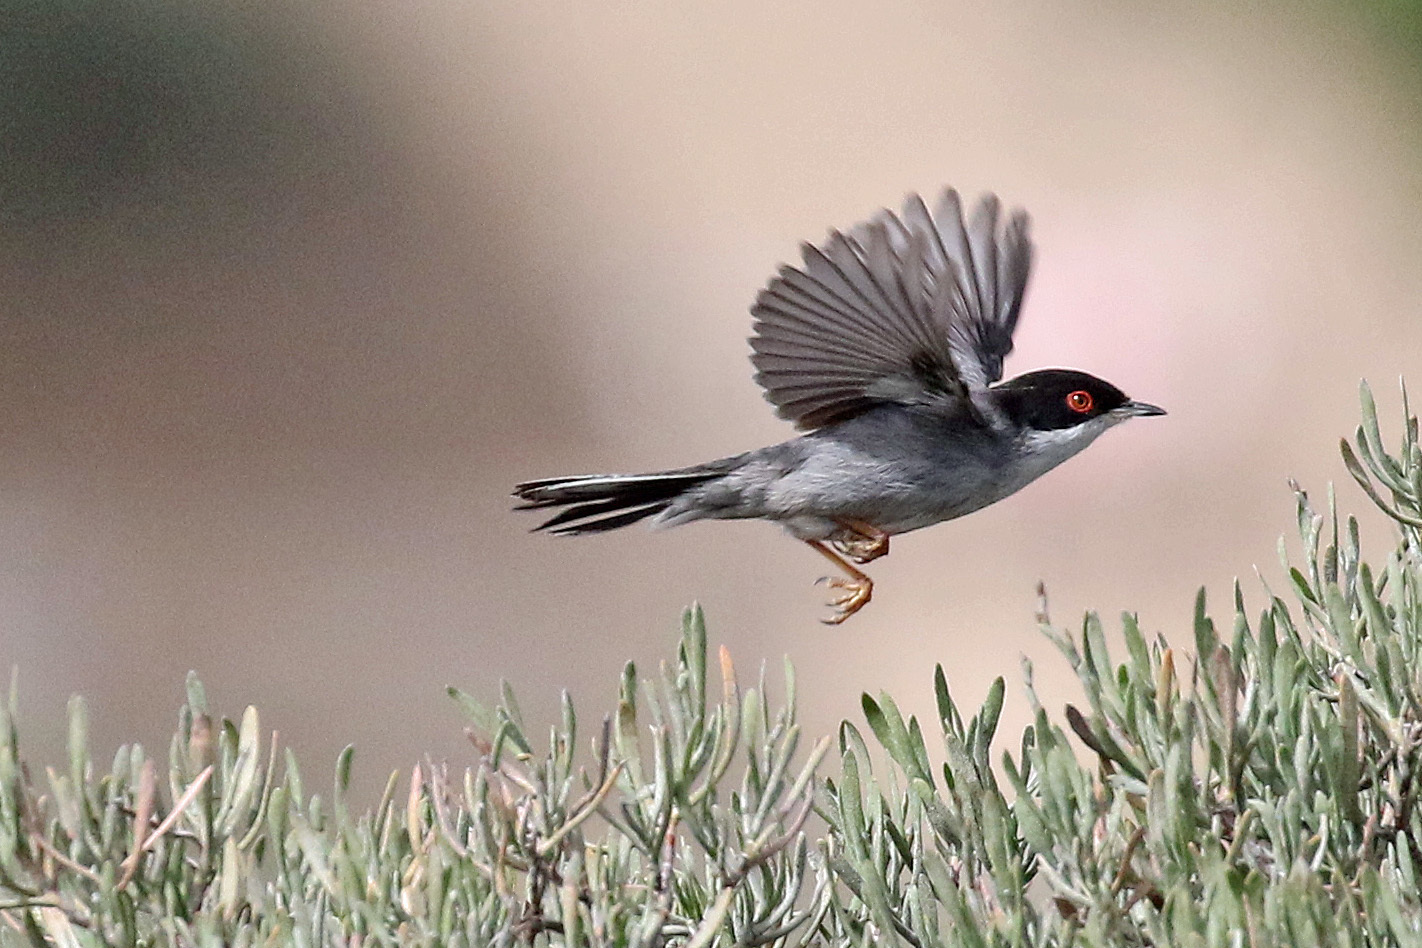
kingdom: Animalia
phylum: Chordata
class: Aves
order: Passeriformes
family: Sylviidae
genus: Curruca
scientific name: Curruca melanocephala
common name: Sardinian warbler
